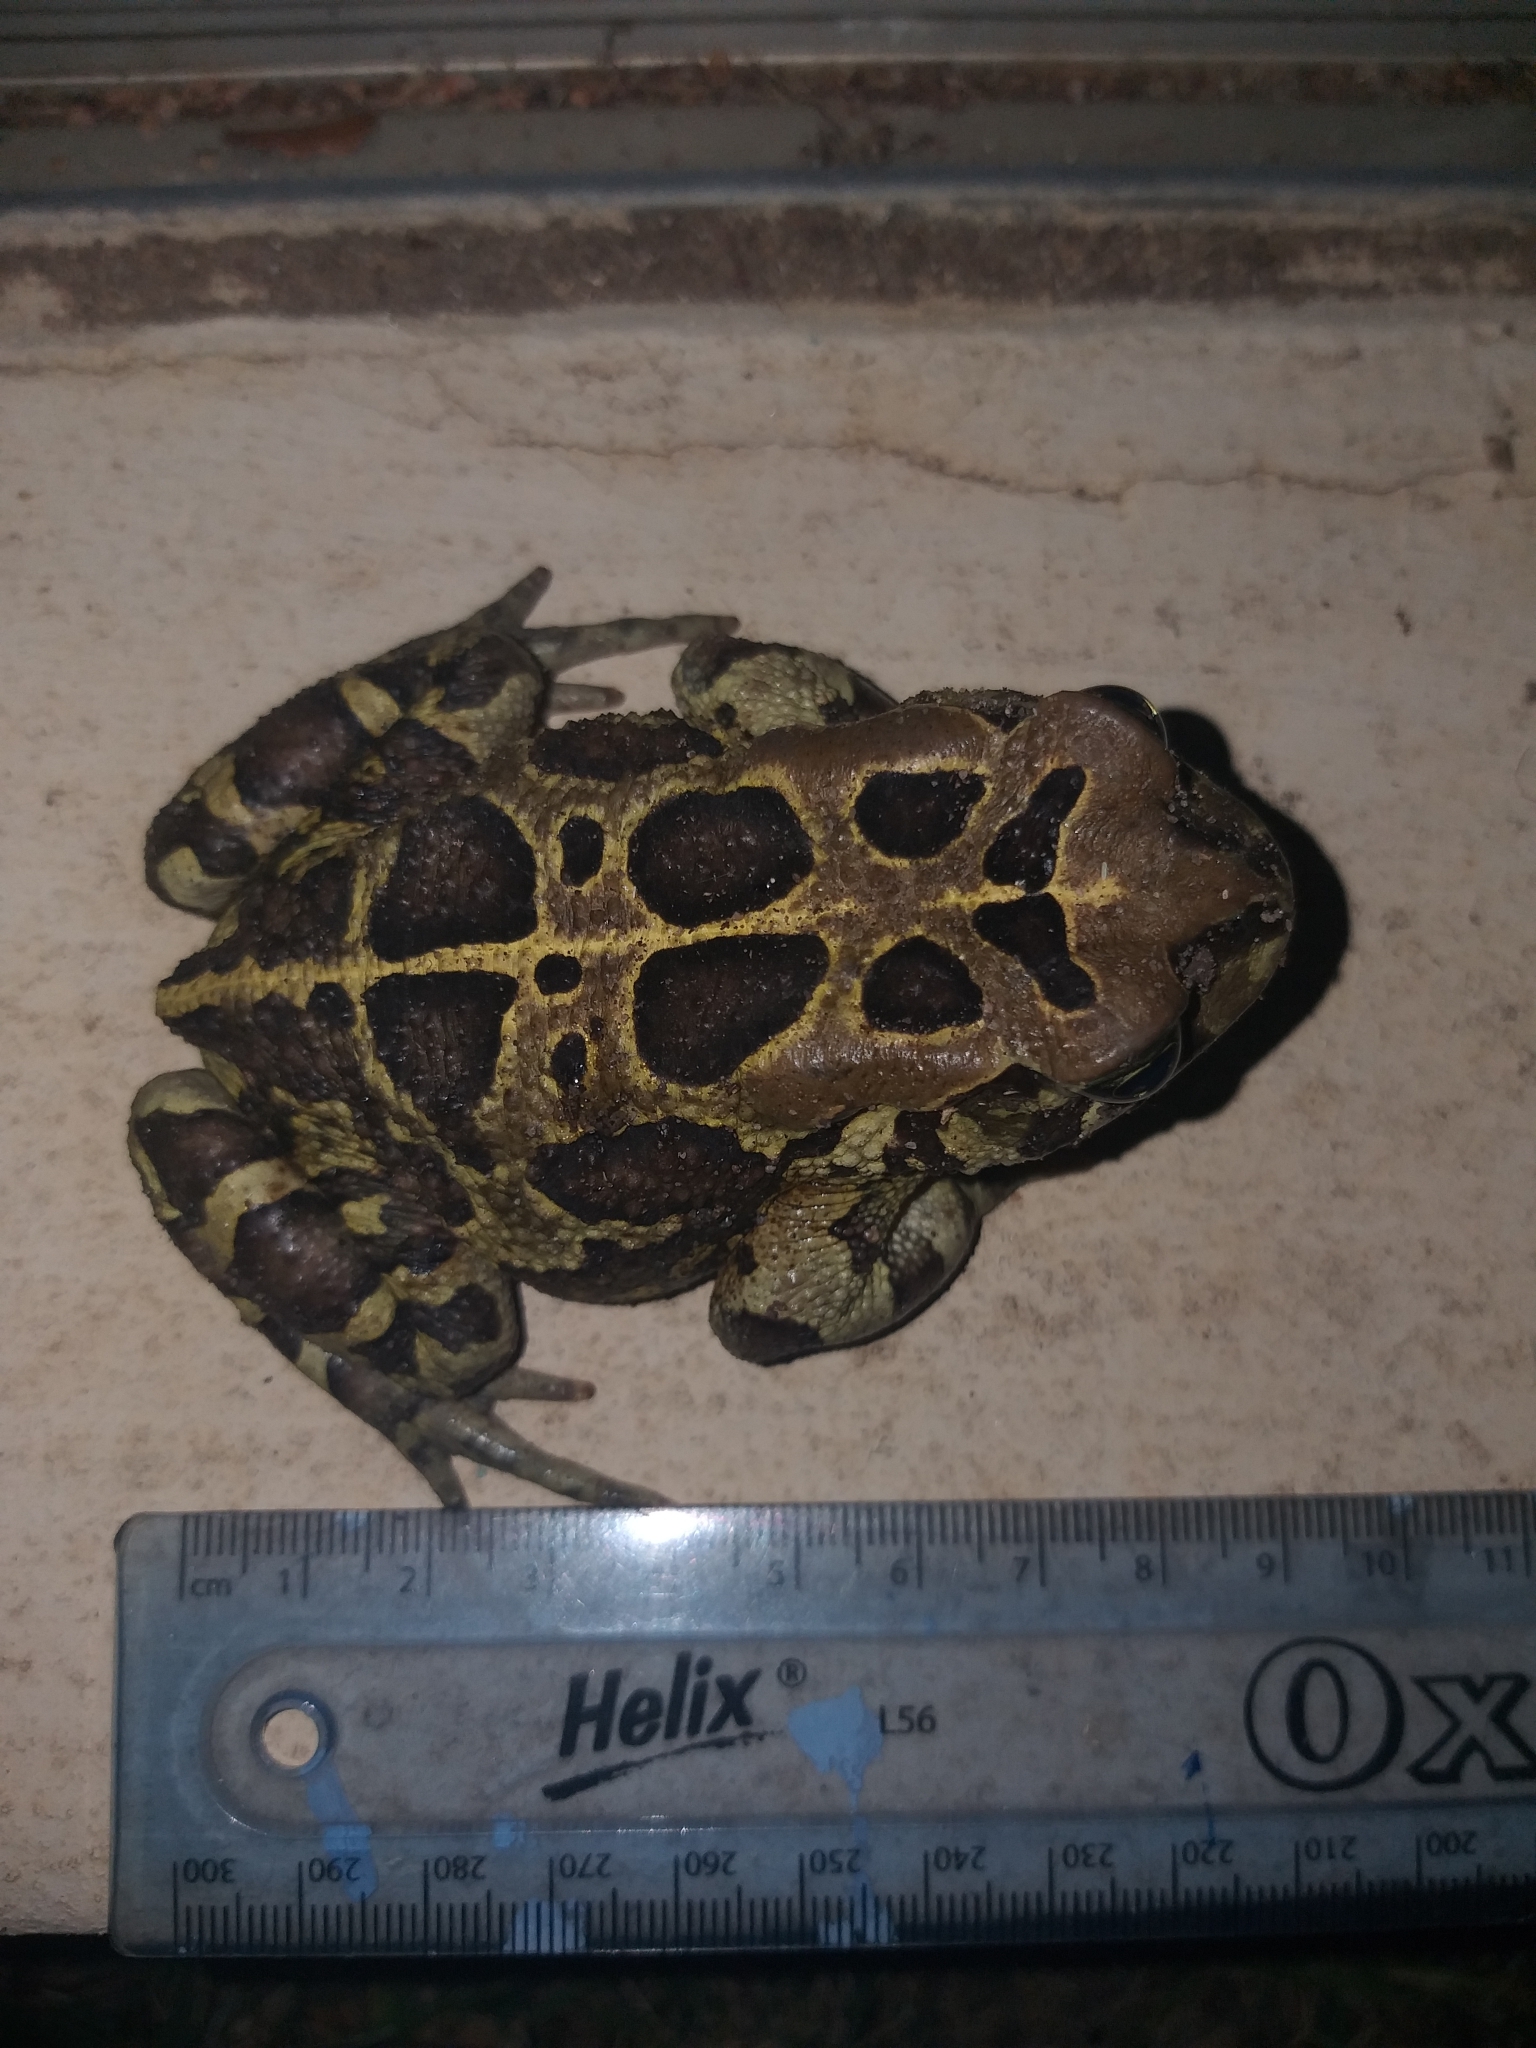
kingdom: Animalia
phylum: Chordata
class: Amphibia
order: Anura
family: Bufonidae
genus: Sclerophrys
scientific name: Sclerophrys pantherina
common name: Panther toad
